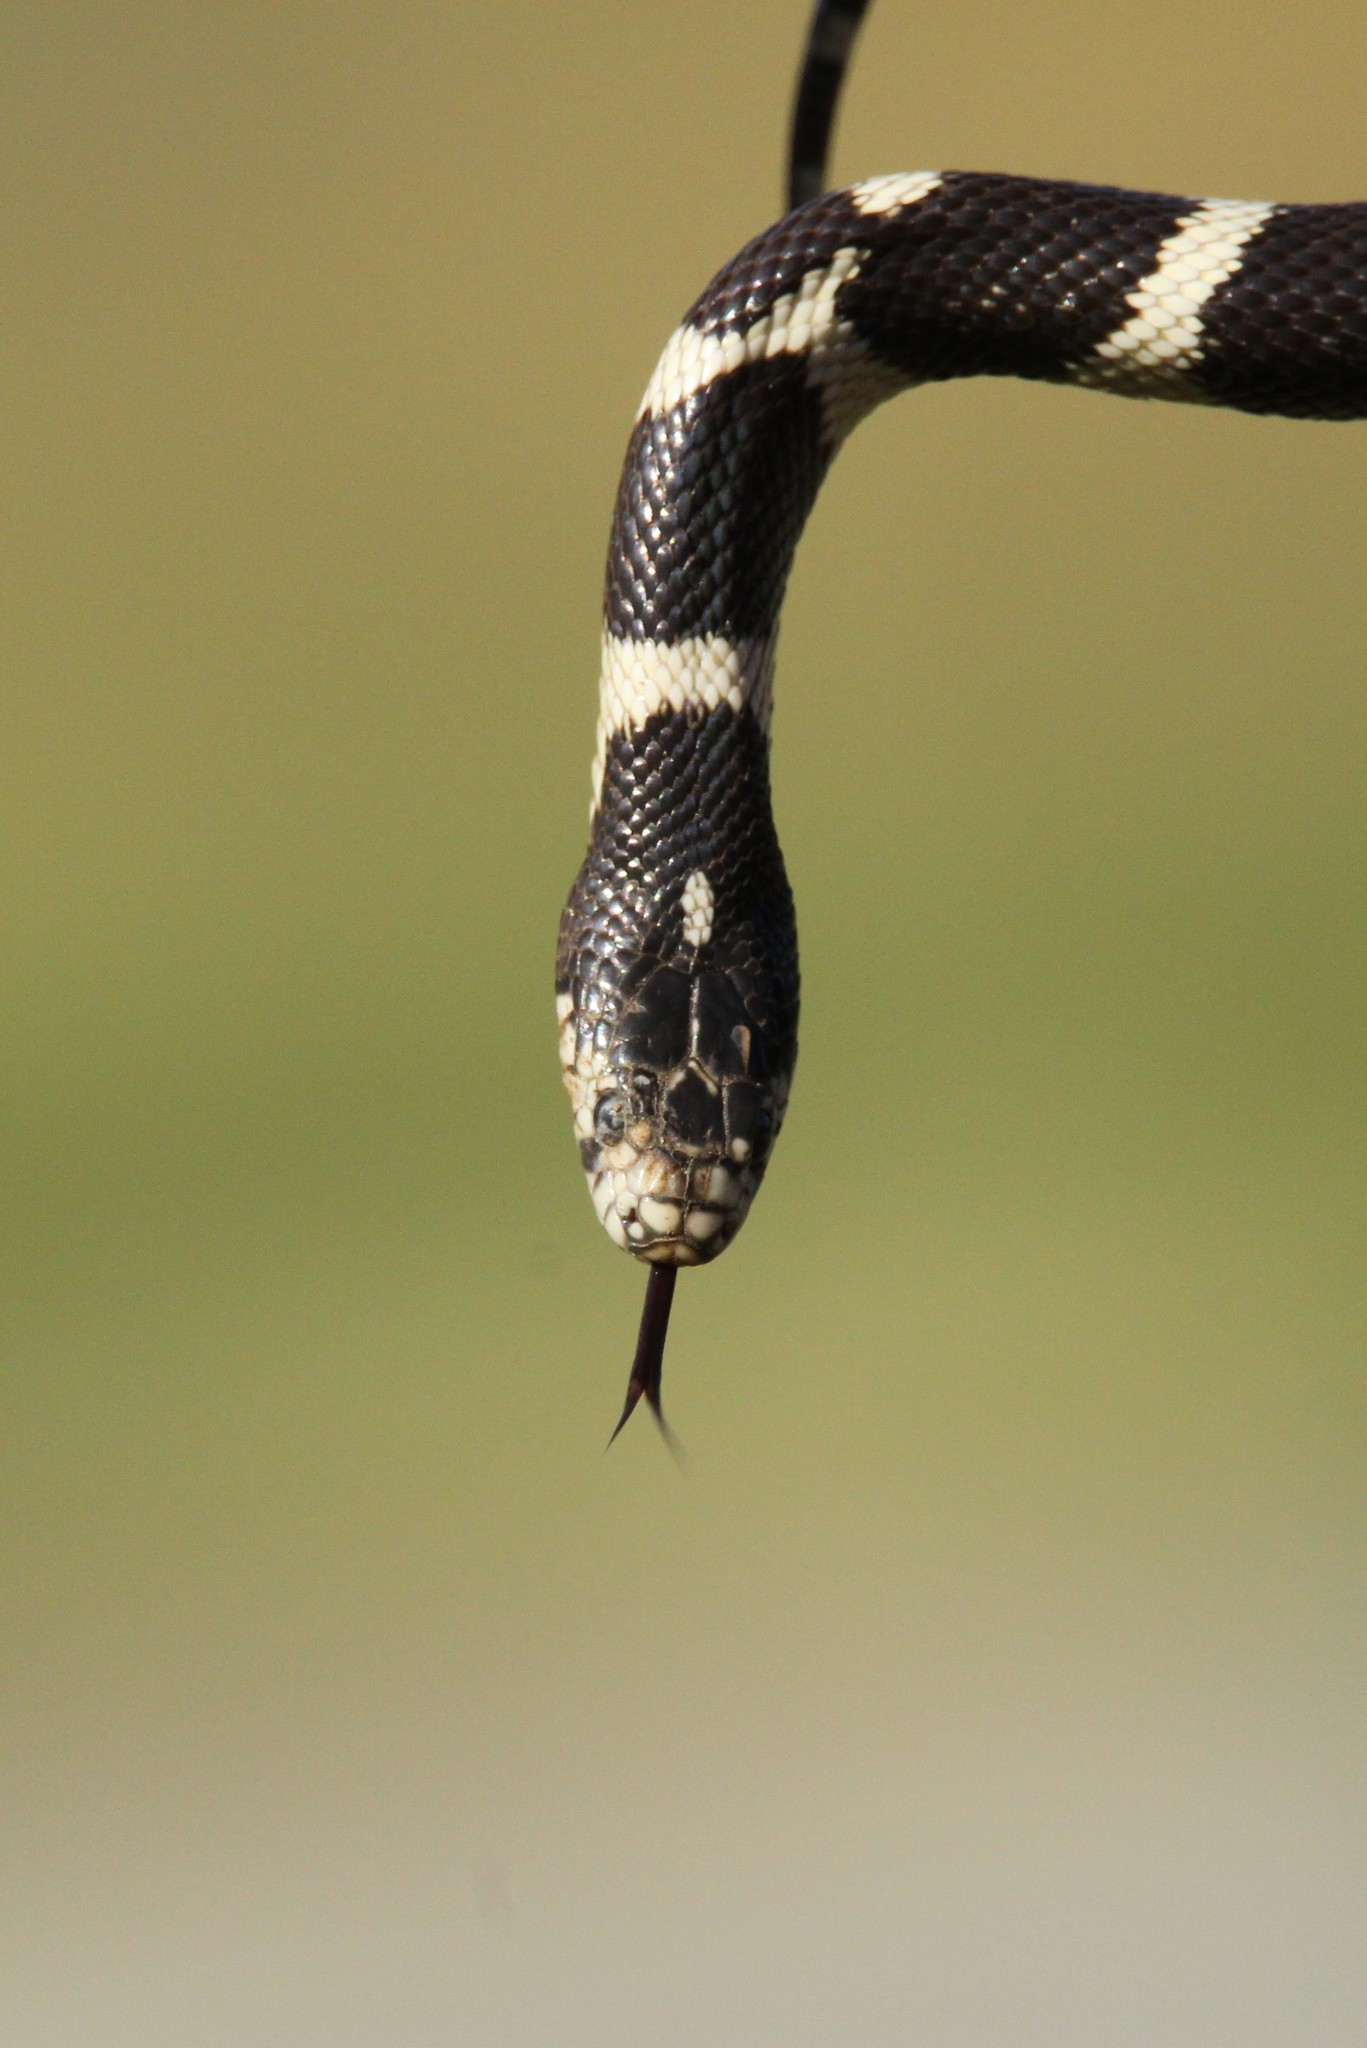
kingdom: Animalia
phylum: Chordata
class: Squamata
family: Colubridae
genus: Lampropeltis
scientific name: Lampropeltis californiae
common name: California kingsnake
